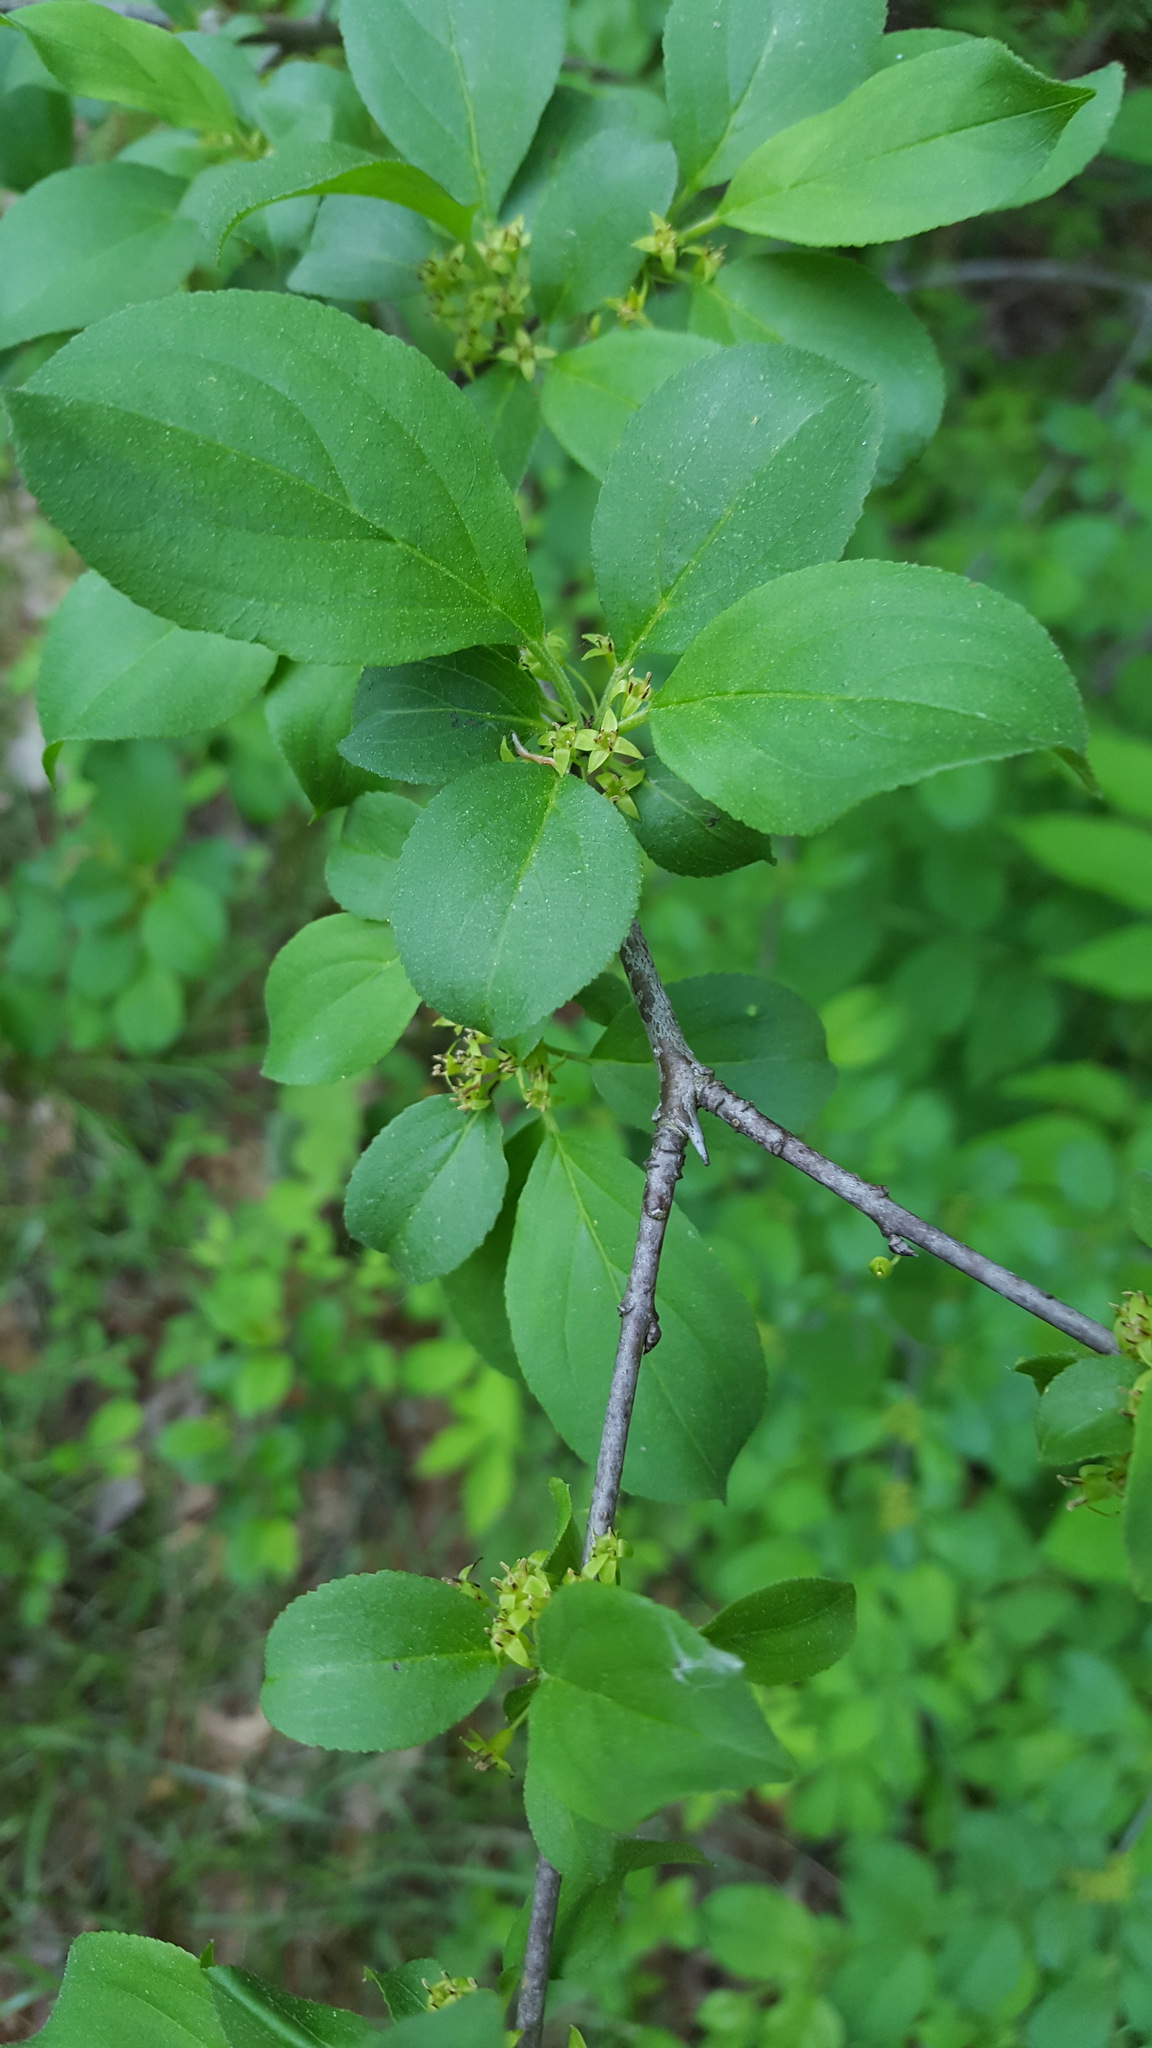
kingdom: Plantae
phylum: Tracheophyta
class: Magnoliopsida
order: Rosales
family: Rhamnaceae
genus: Rhamnus
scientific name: Rhamnus cathartica
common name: Common buckthorn
